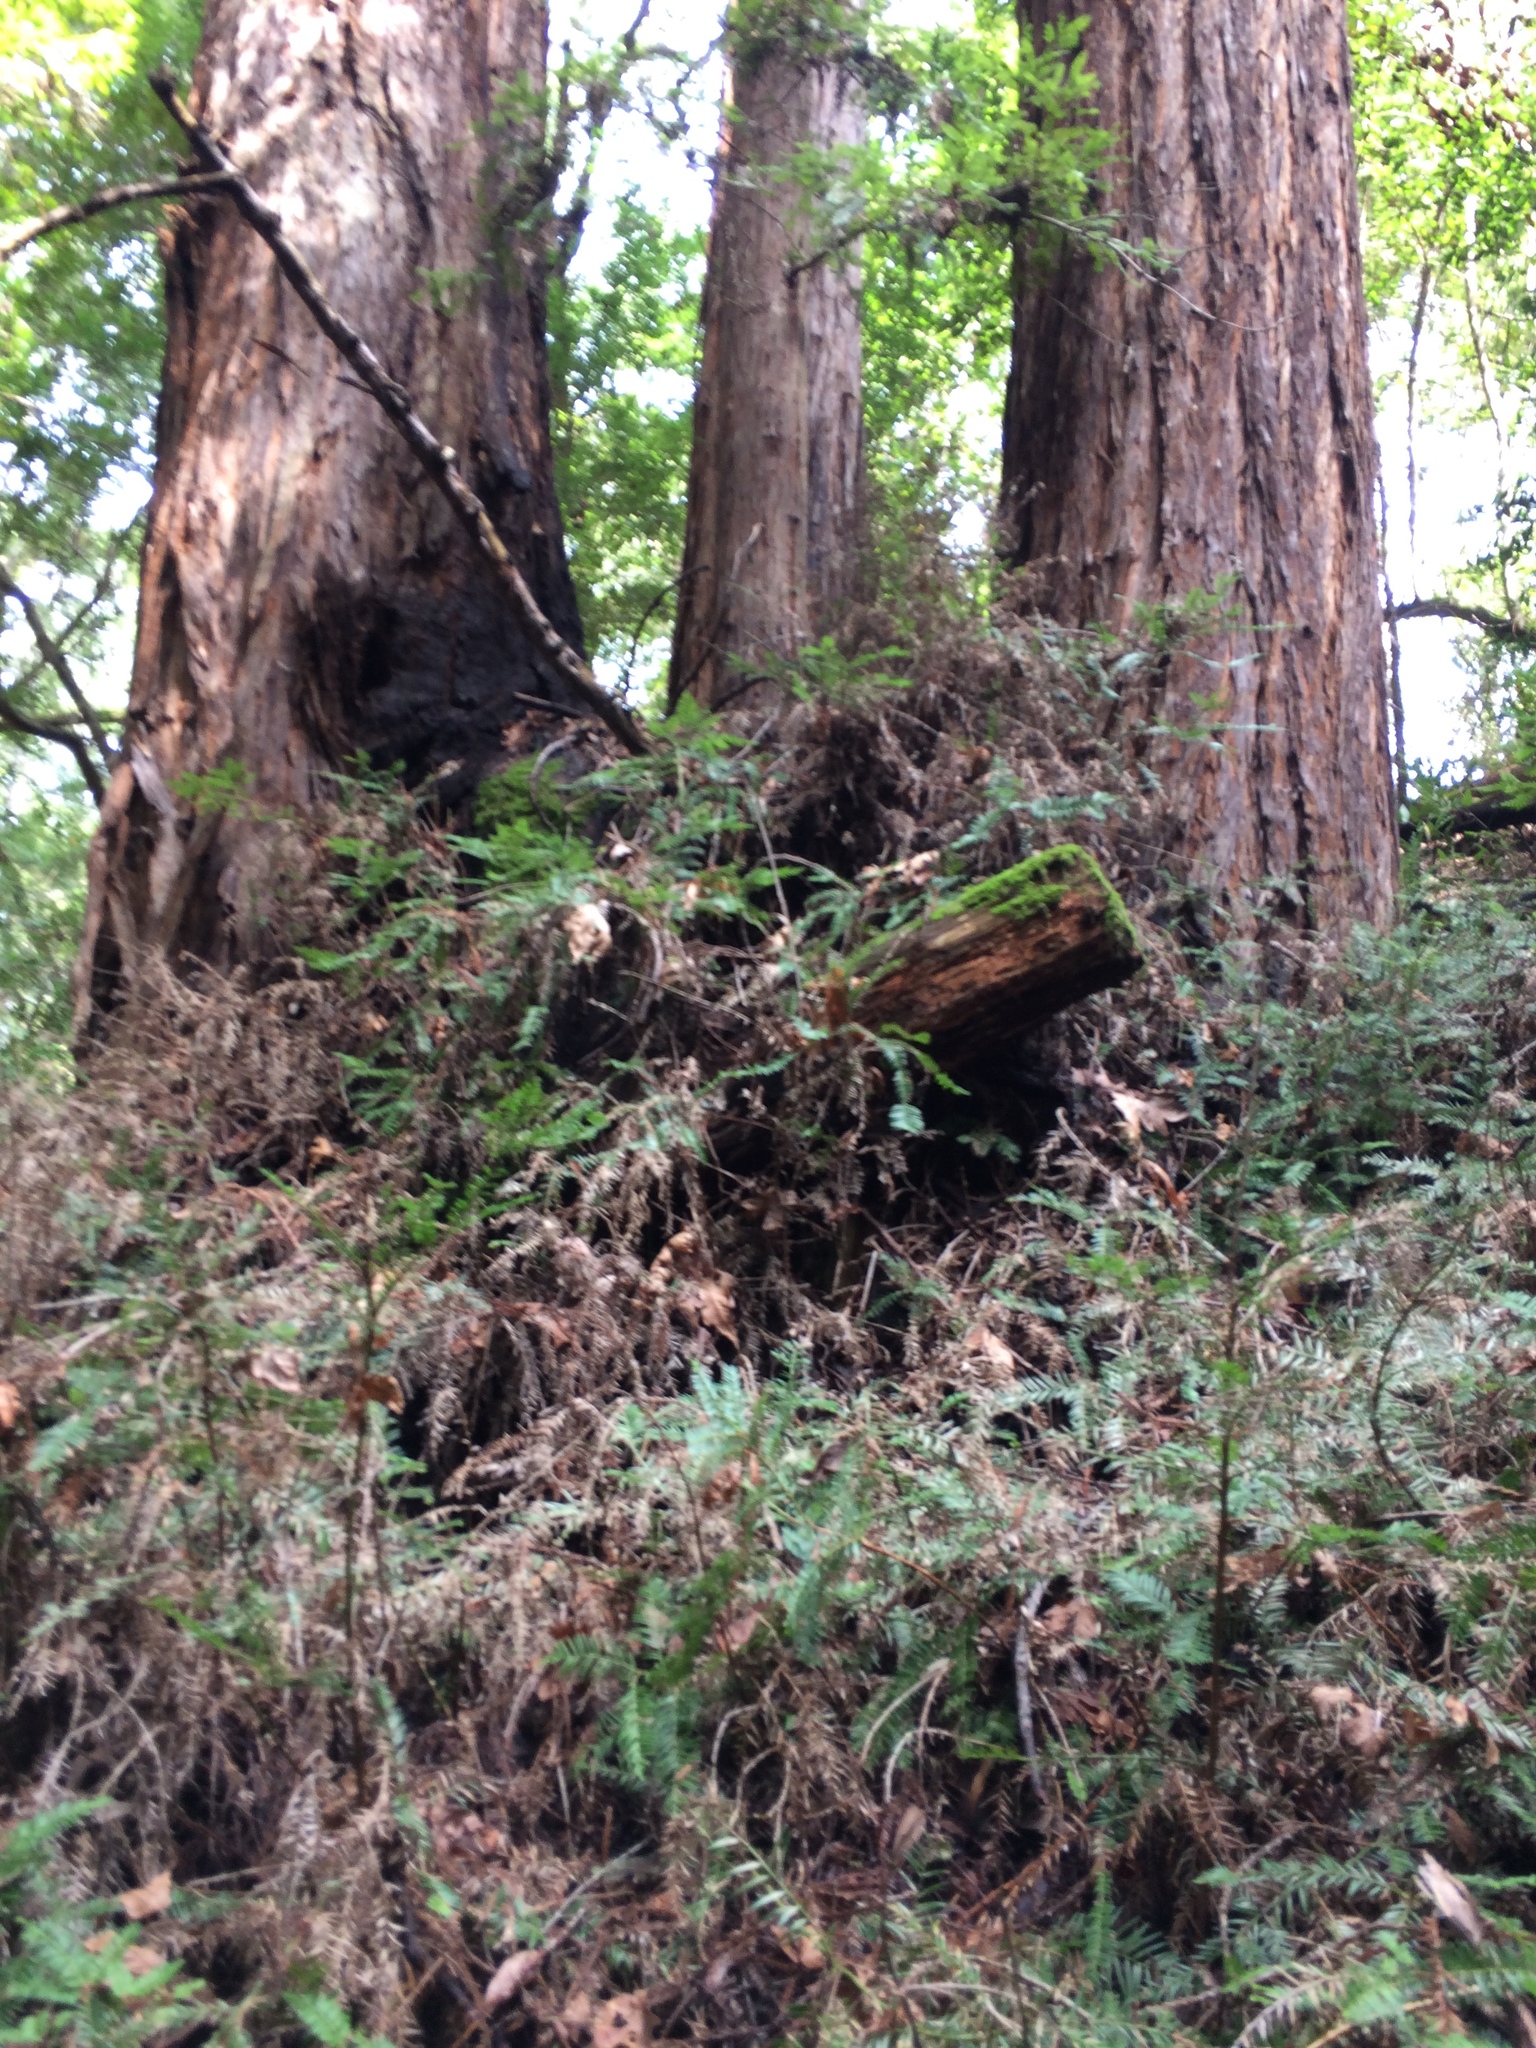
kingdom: Plantae
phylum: Tracheophyta
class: Pinopsida
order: Pinales
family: Cupressaceae
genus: Sequoia
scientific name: Sequoia sempervirens
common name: Coast redwood
